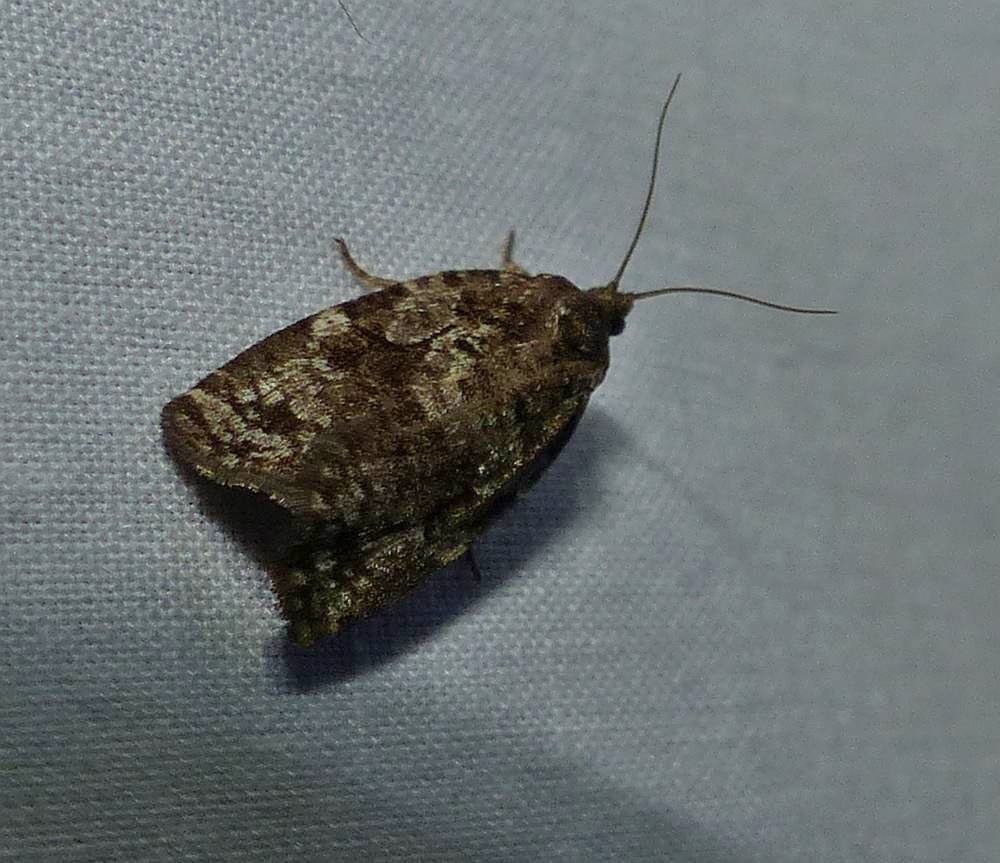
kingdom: Animalia
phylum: Arthropoda
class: Insecta
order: Lepidoptera
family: Tortricidae
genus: Choristoneura
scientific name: Choristoneura fumiferana
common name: Spruce budworm
